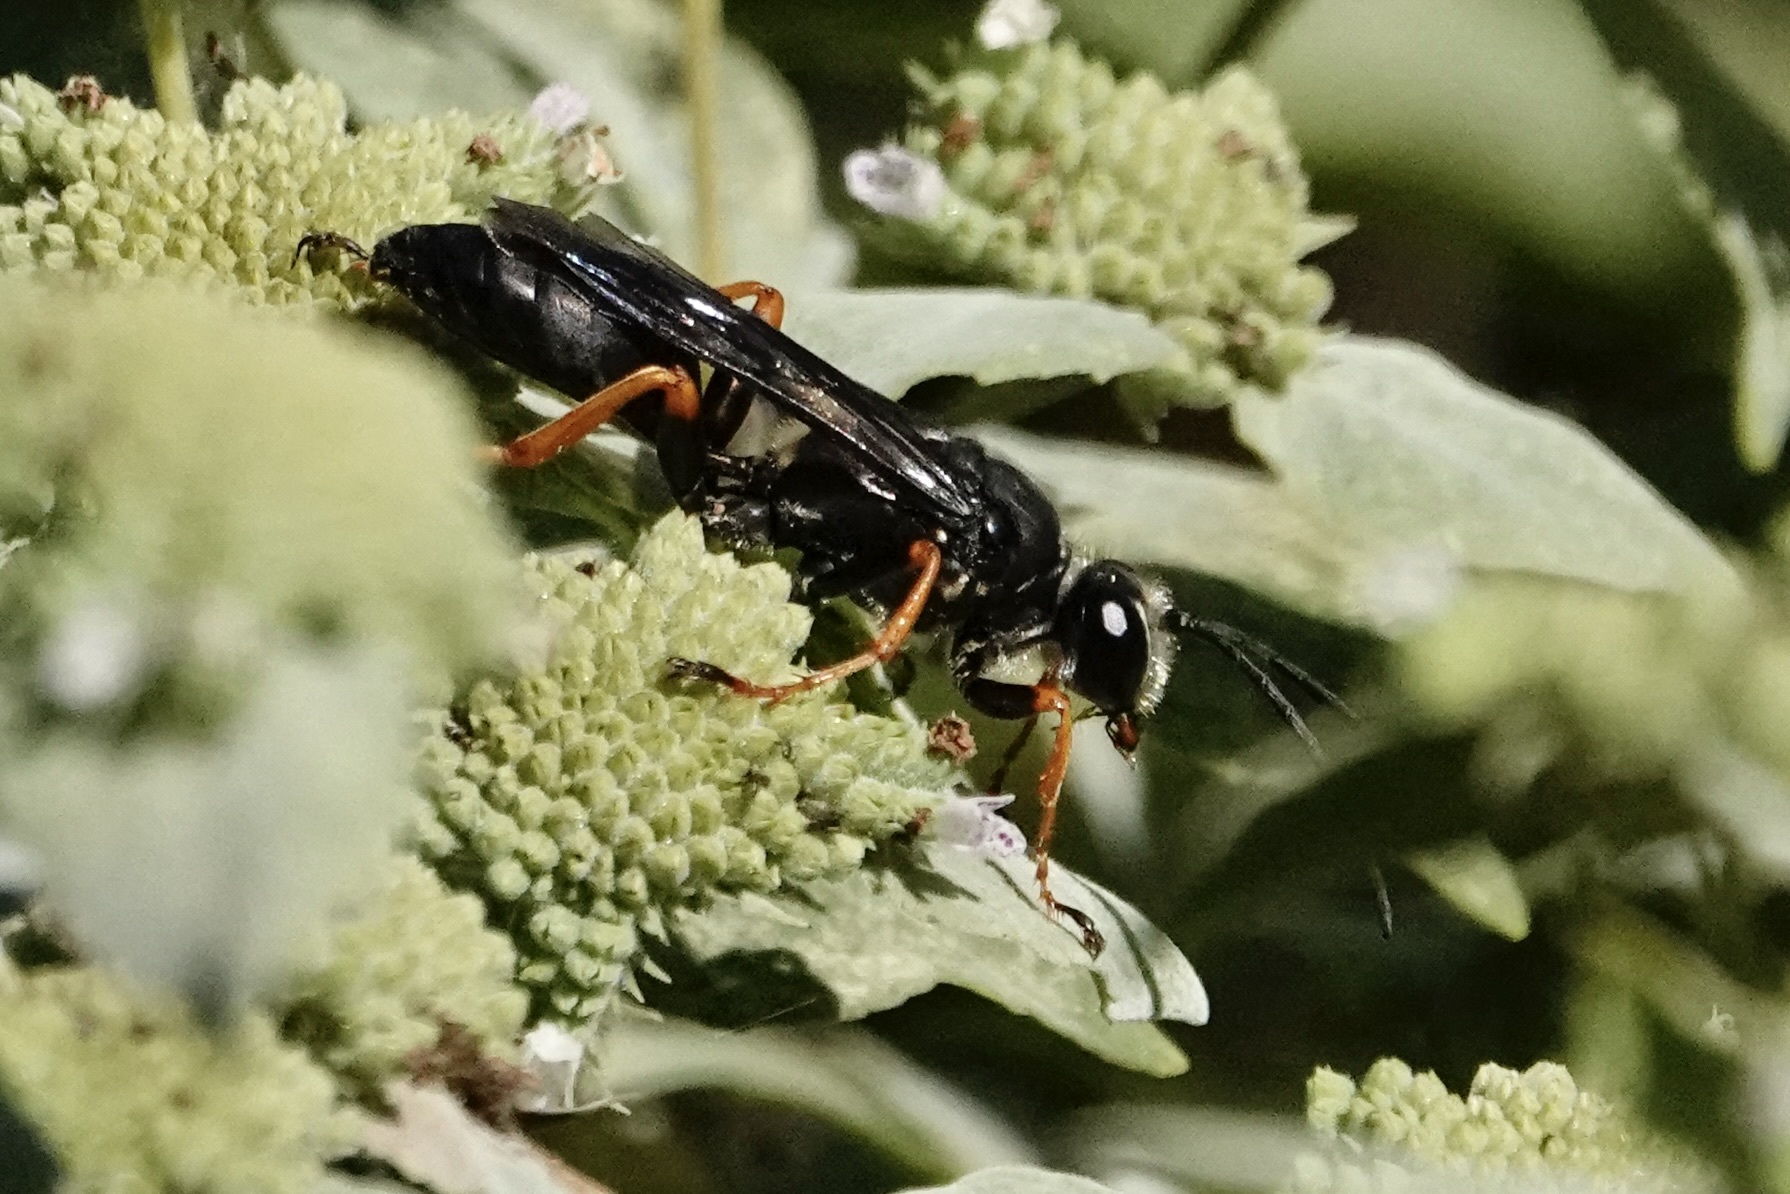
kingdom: Animalia
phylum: Arthropoda
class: Insecta
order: Hymenoptera
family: Sphecidae
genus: Sphex
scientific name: Sphex nudus
